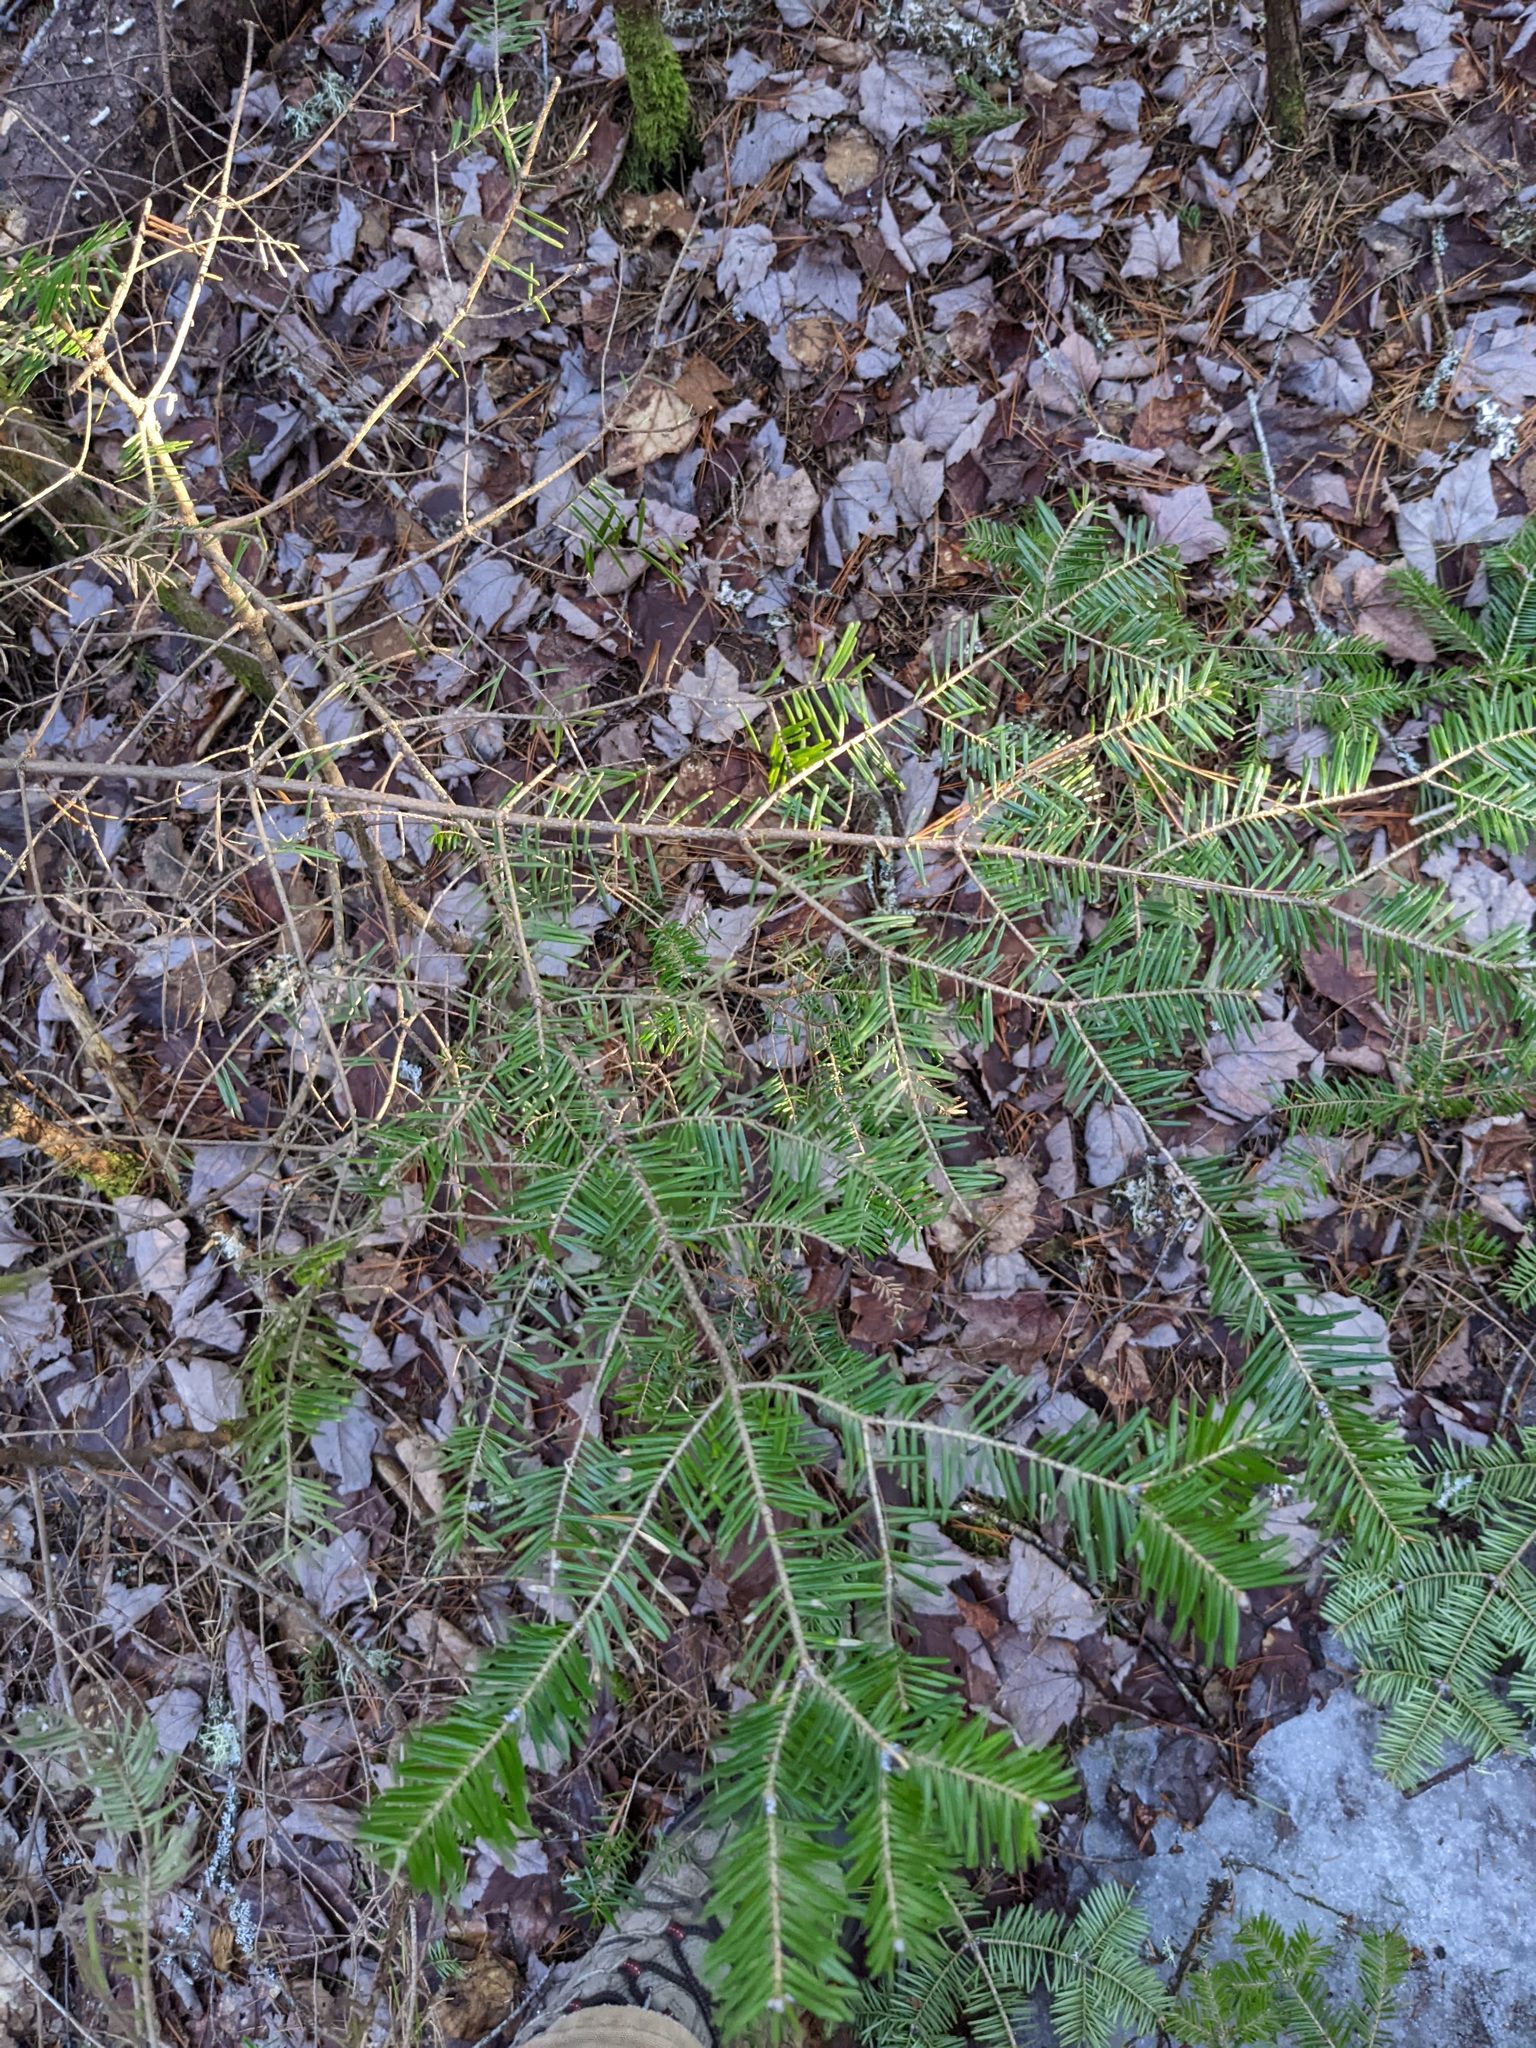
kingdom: Plantae
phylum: Tracheophyta
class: Pinopsida
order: Pinales
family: Pinaceae
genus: Abies
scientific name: Abies balsamea
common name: Balsam fir
